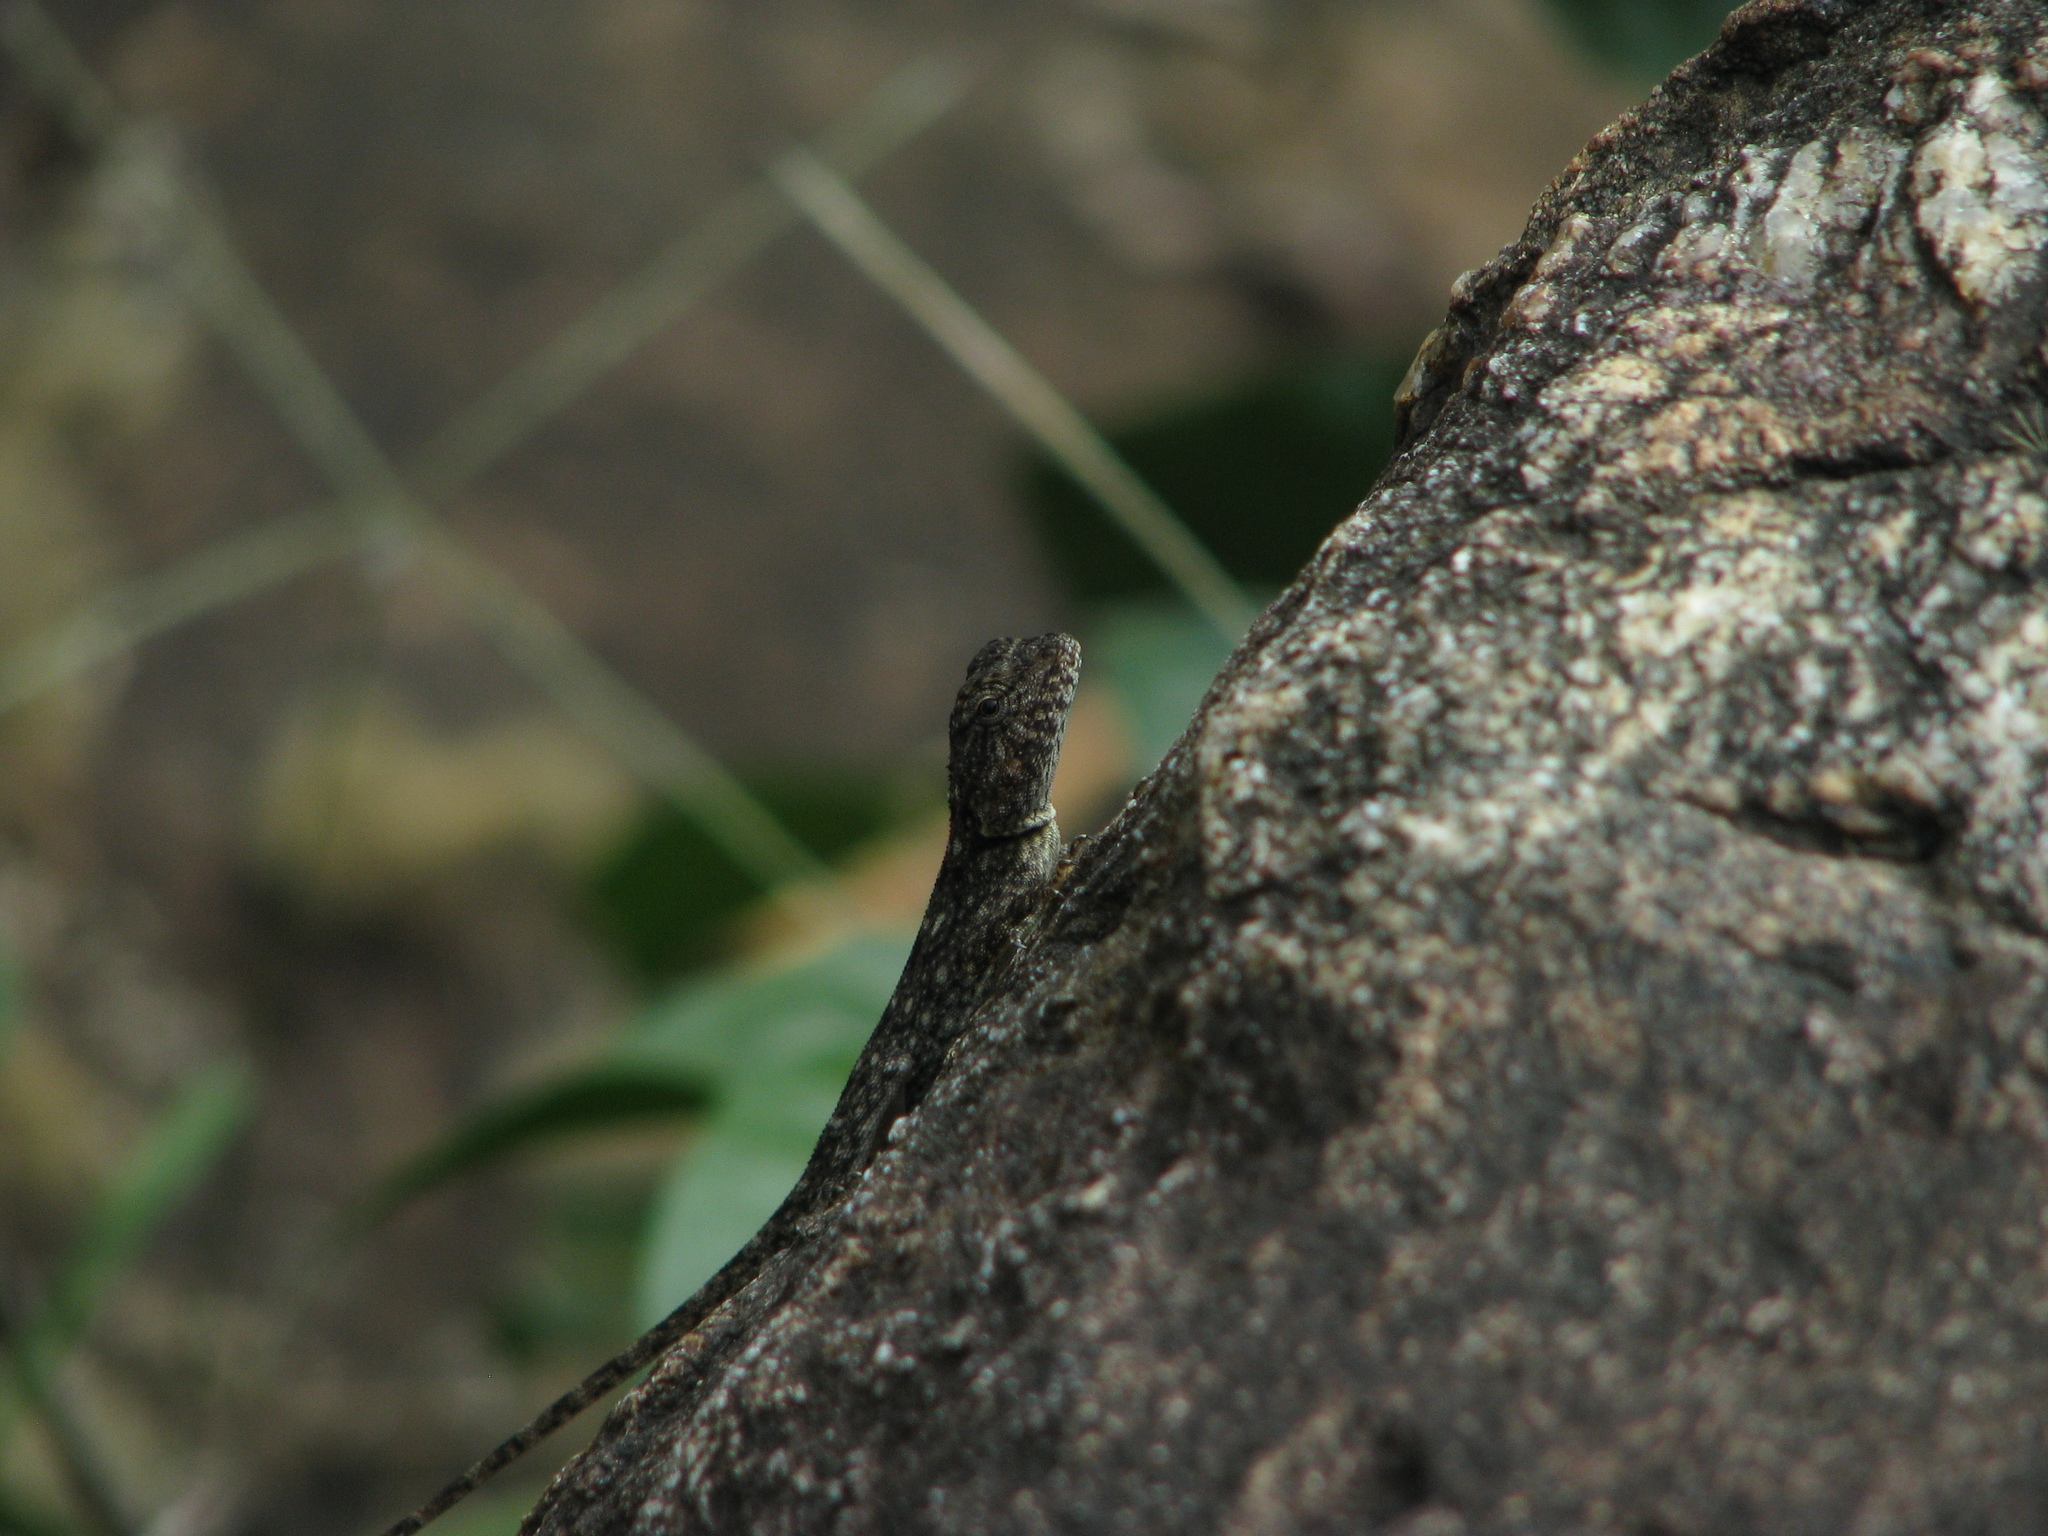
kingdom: Animalia
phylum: Chordata
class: Squamata
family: Agamidae
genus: Psammophilus
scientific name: Psammophilus dorsalis
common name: South indian rock agama
